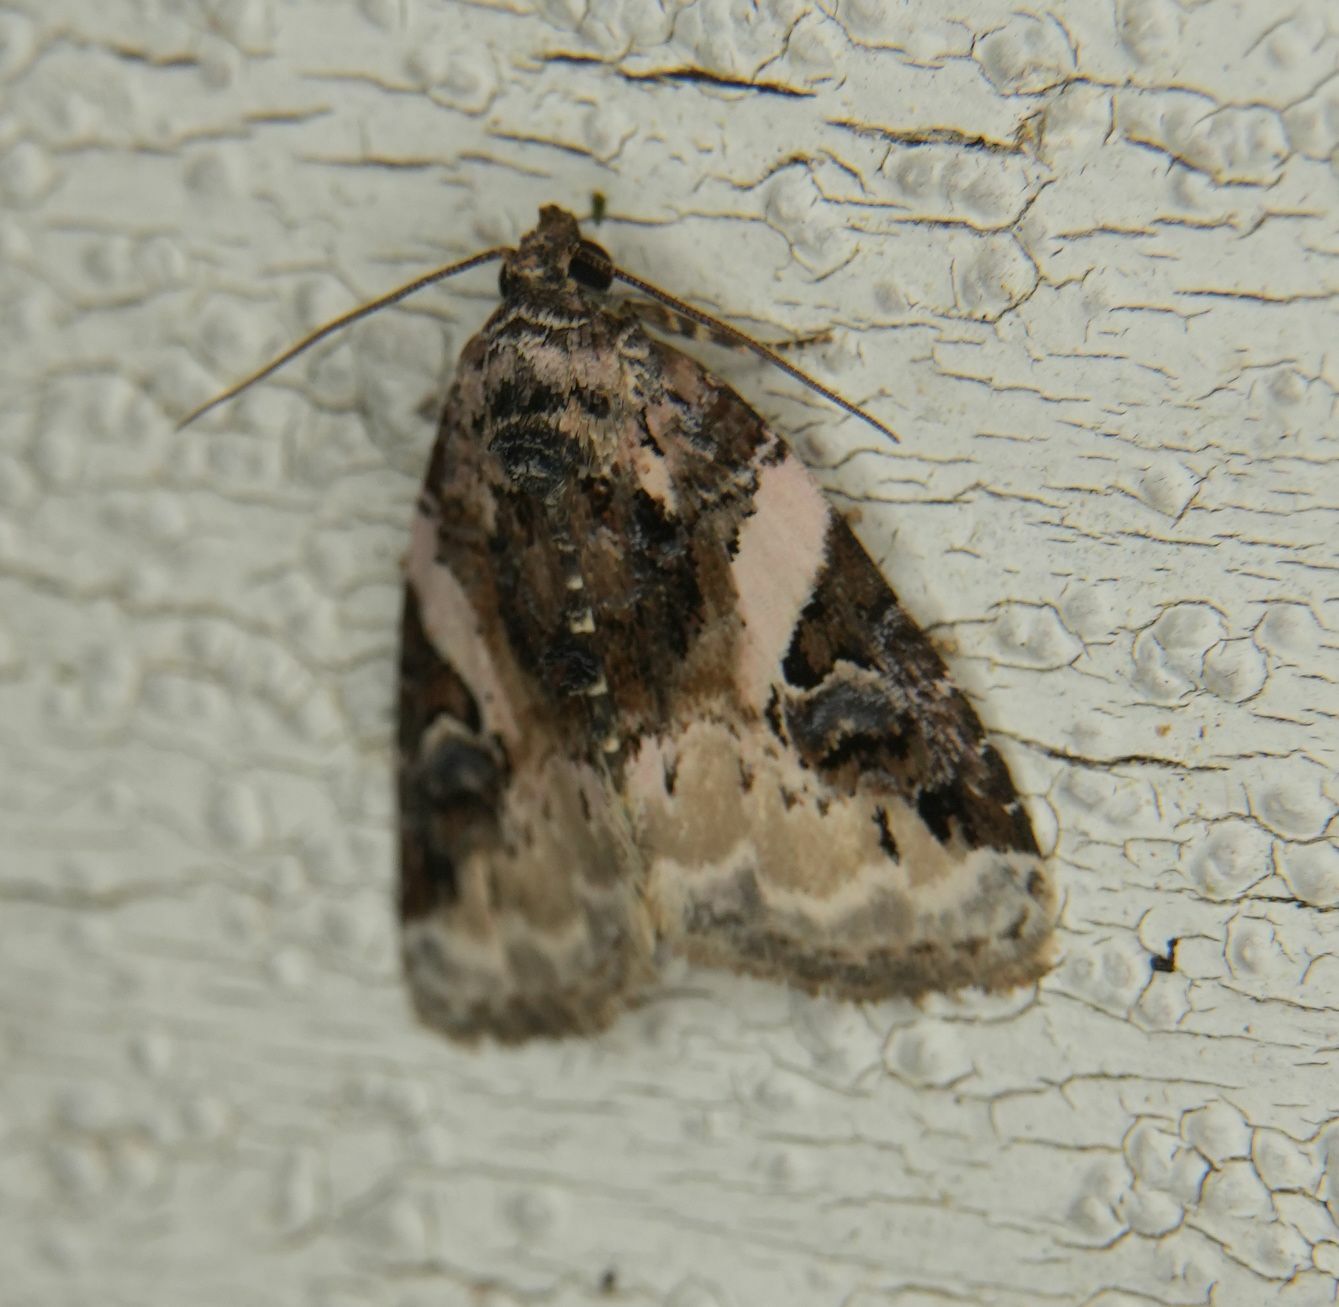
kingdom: Animalia
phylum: Arthropoda
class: Insecta
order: Lepidoptera
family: Noctuidae
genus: Pseudeustrotia
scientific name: Pseudeustrotia carneola
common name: Pink-barred lithacodia moth
